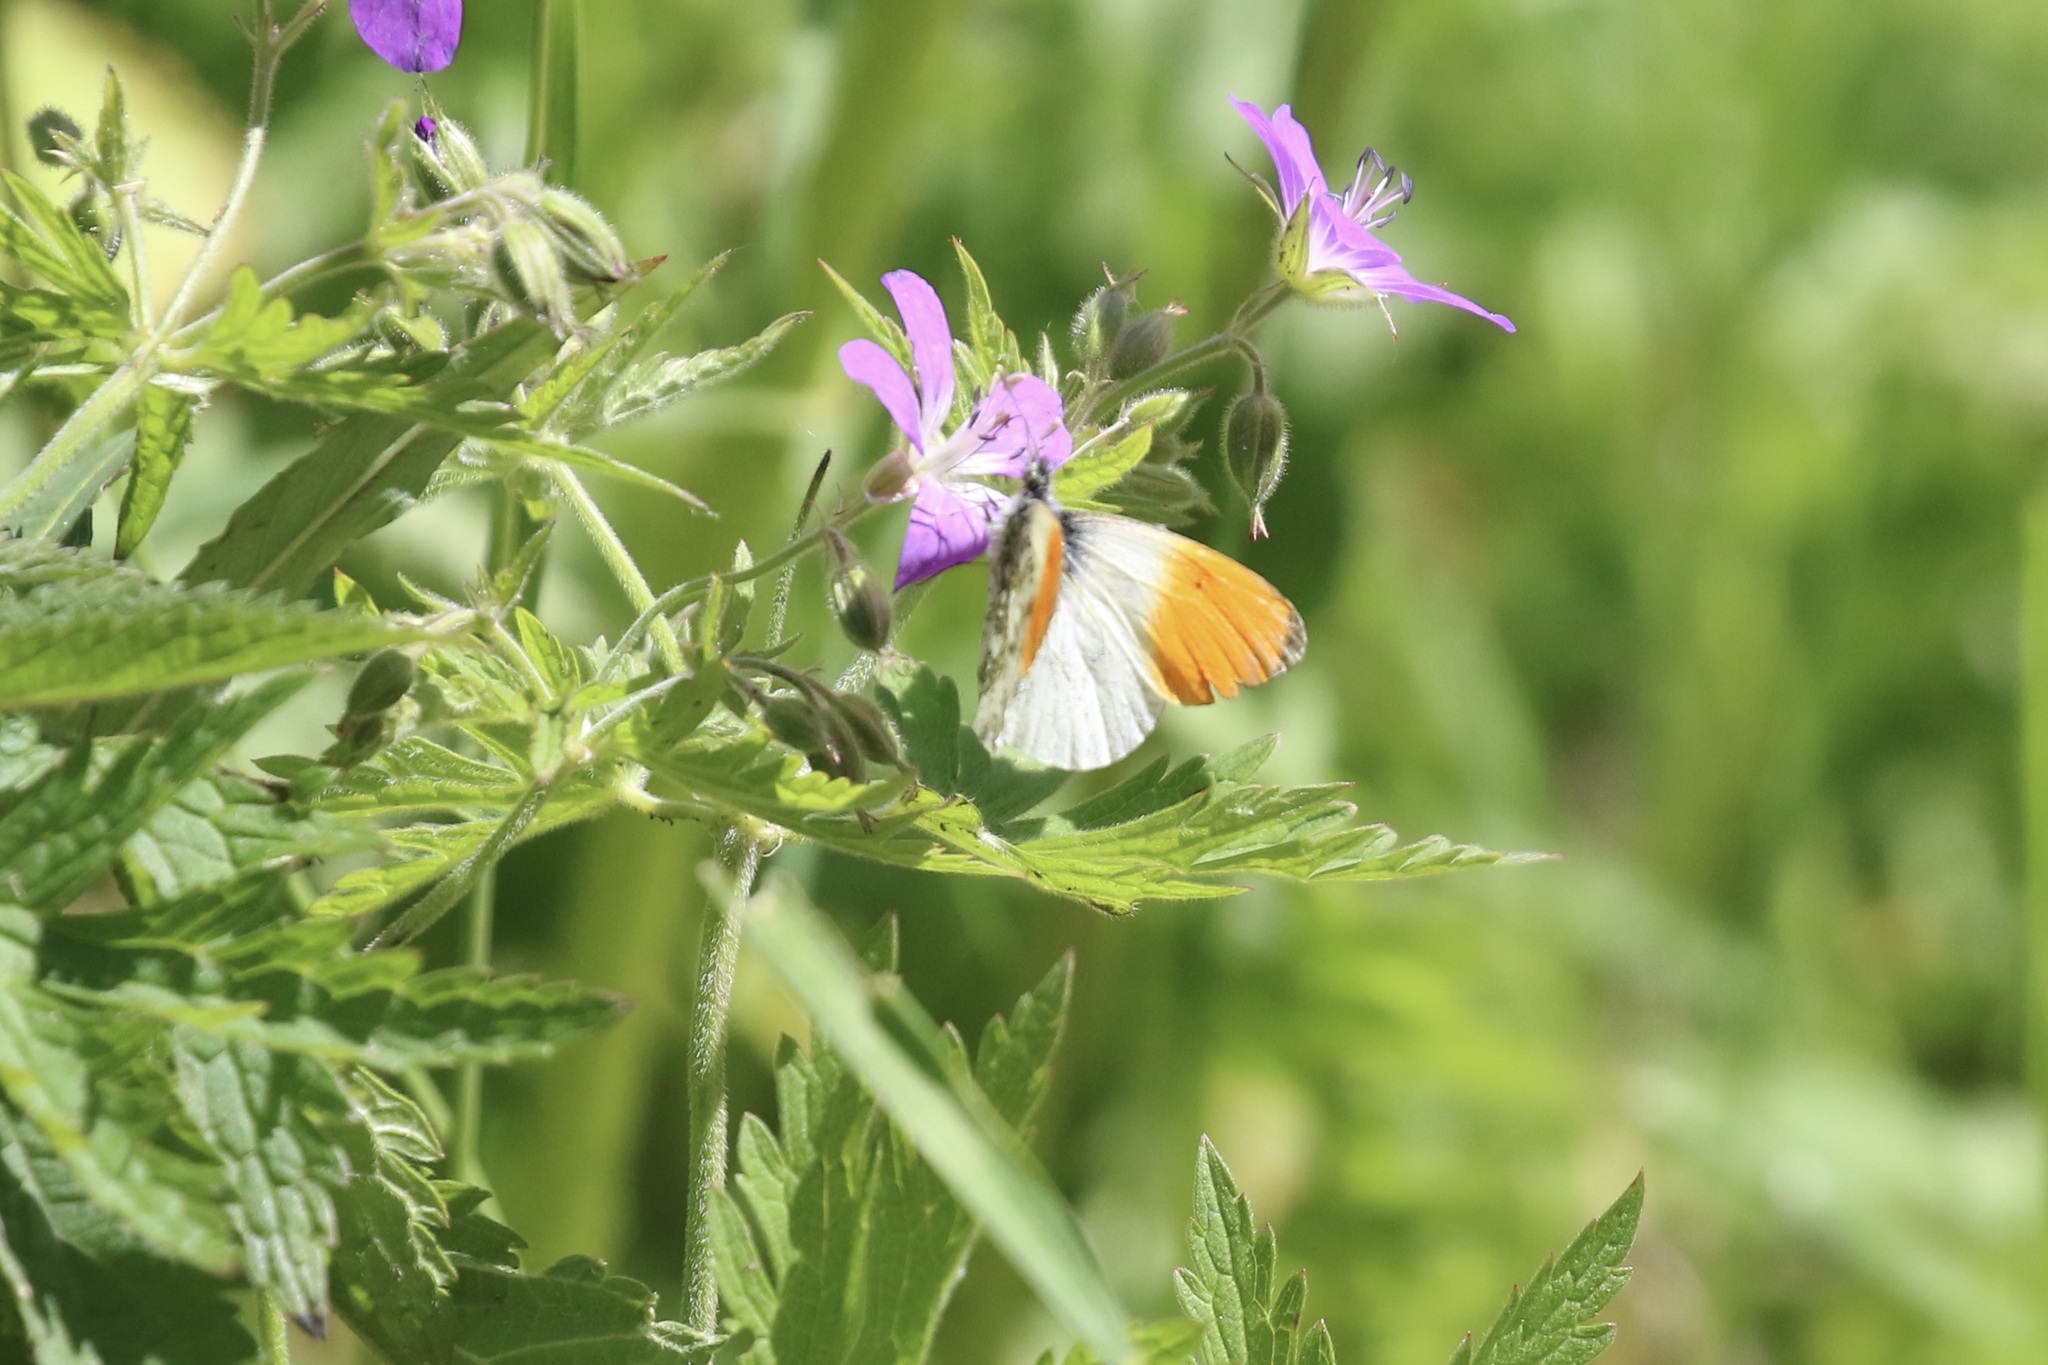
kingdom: Animalia
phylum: Arthropoda
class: Insecta
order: Lepidoptera
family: Pieridae
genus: Anthocharis
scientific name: Anthocharis cardamines
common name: Orange-tip
